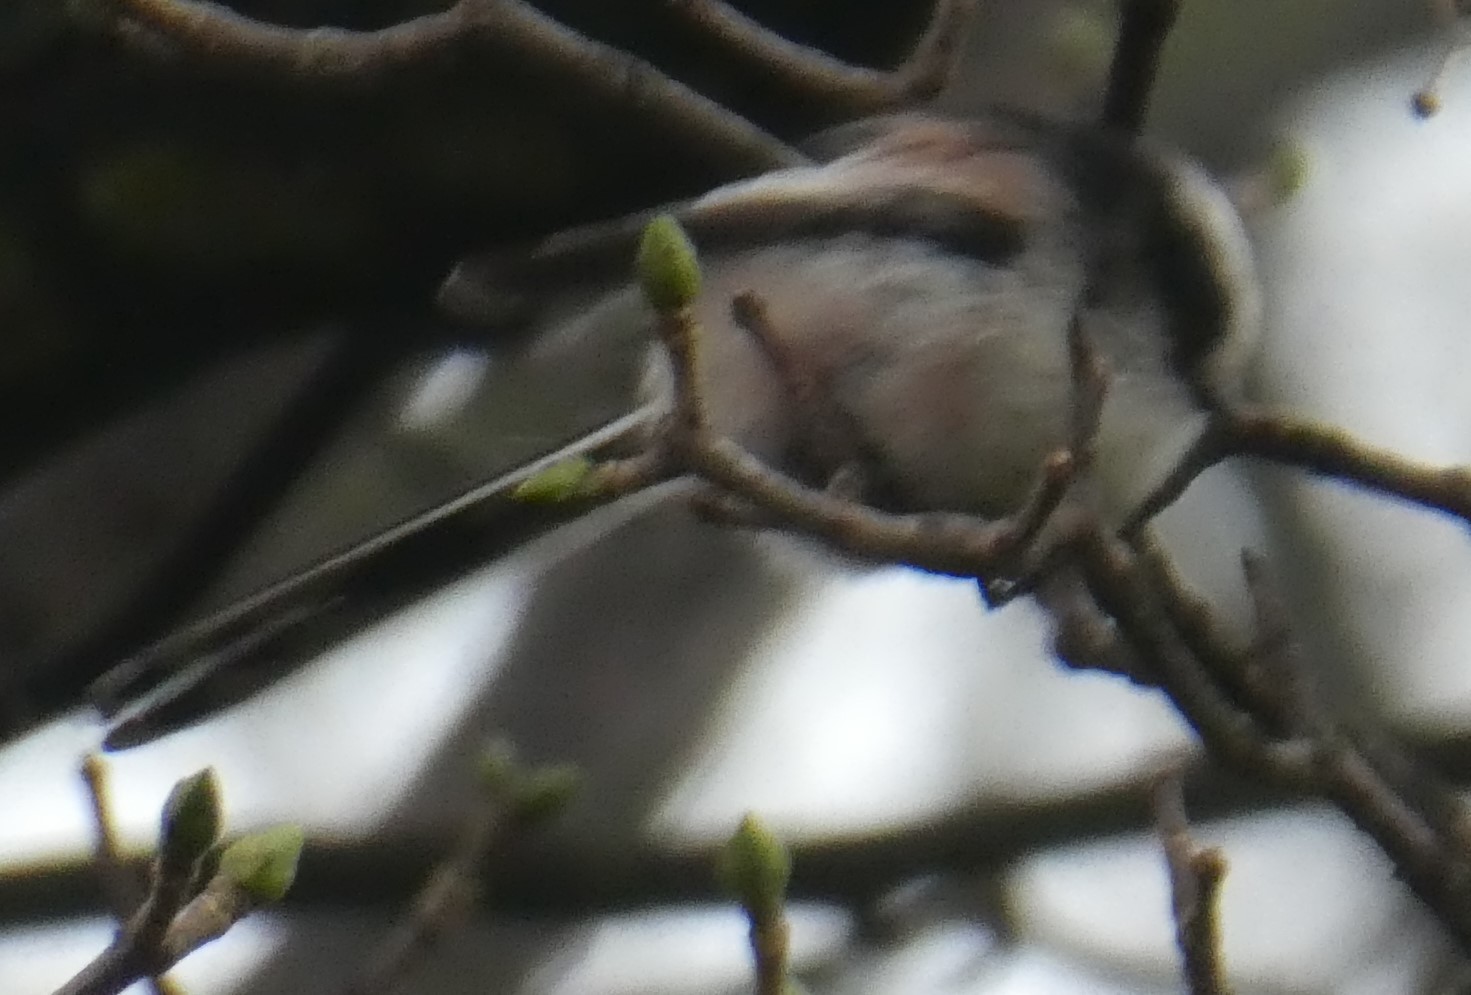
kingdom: Animalia
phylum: Chordata
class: Aves
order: Passeriformes
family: Aegithalidae
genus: Aegithalos
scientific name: Aegithalos caudatus
